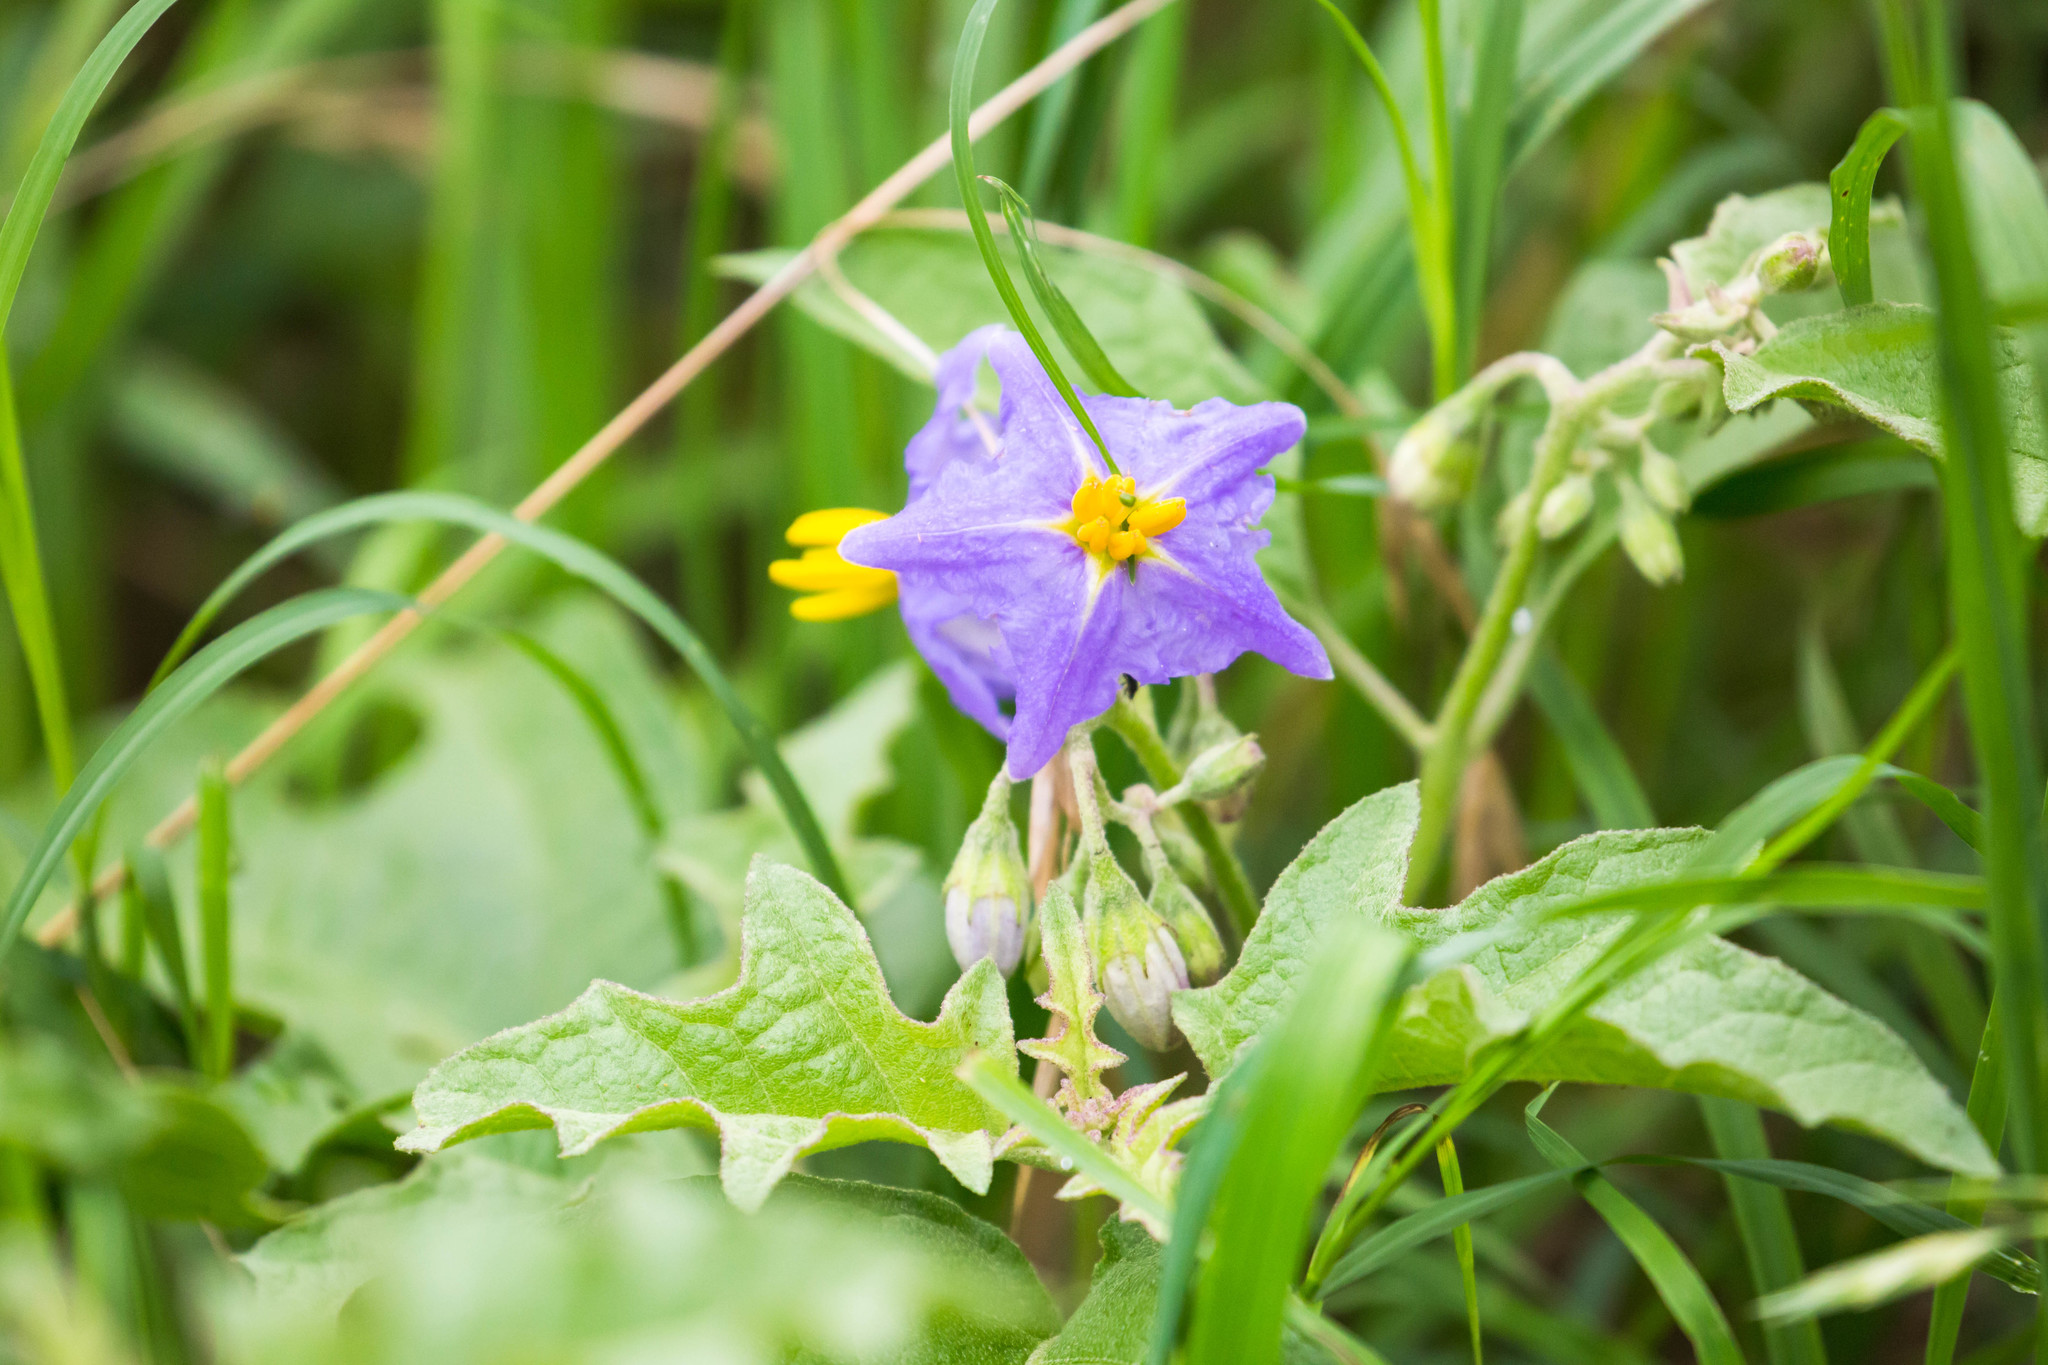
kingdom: Plantae
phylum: Tracheophyta
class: Magnoliopsida
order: Solanales
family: Solanaceae
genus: Solanum
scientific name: Solanum dimidiatum
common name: Carolina horse-nettle
